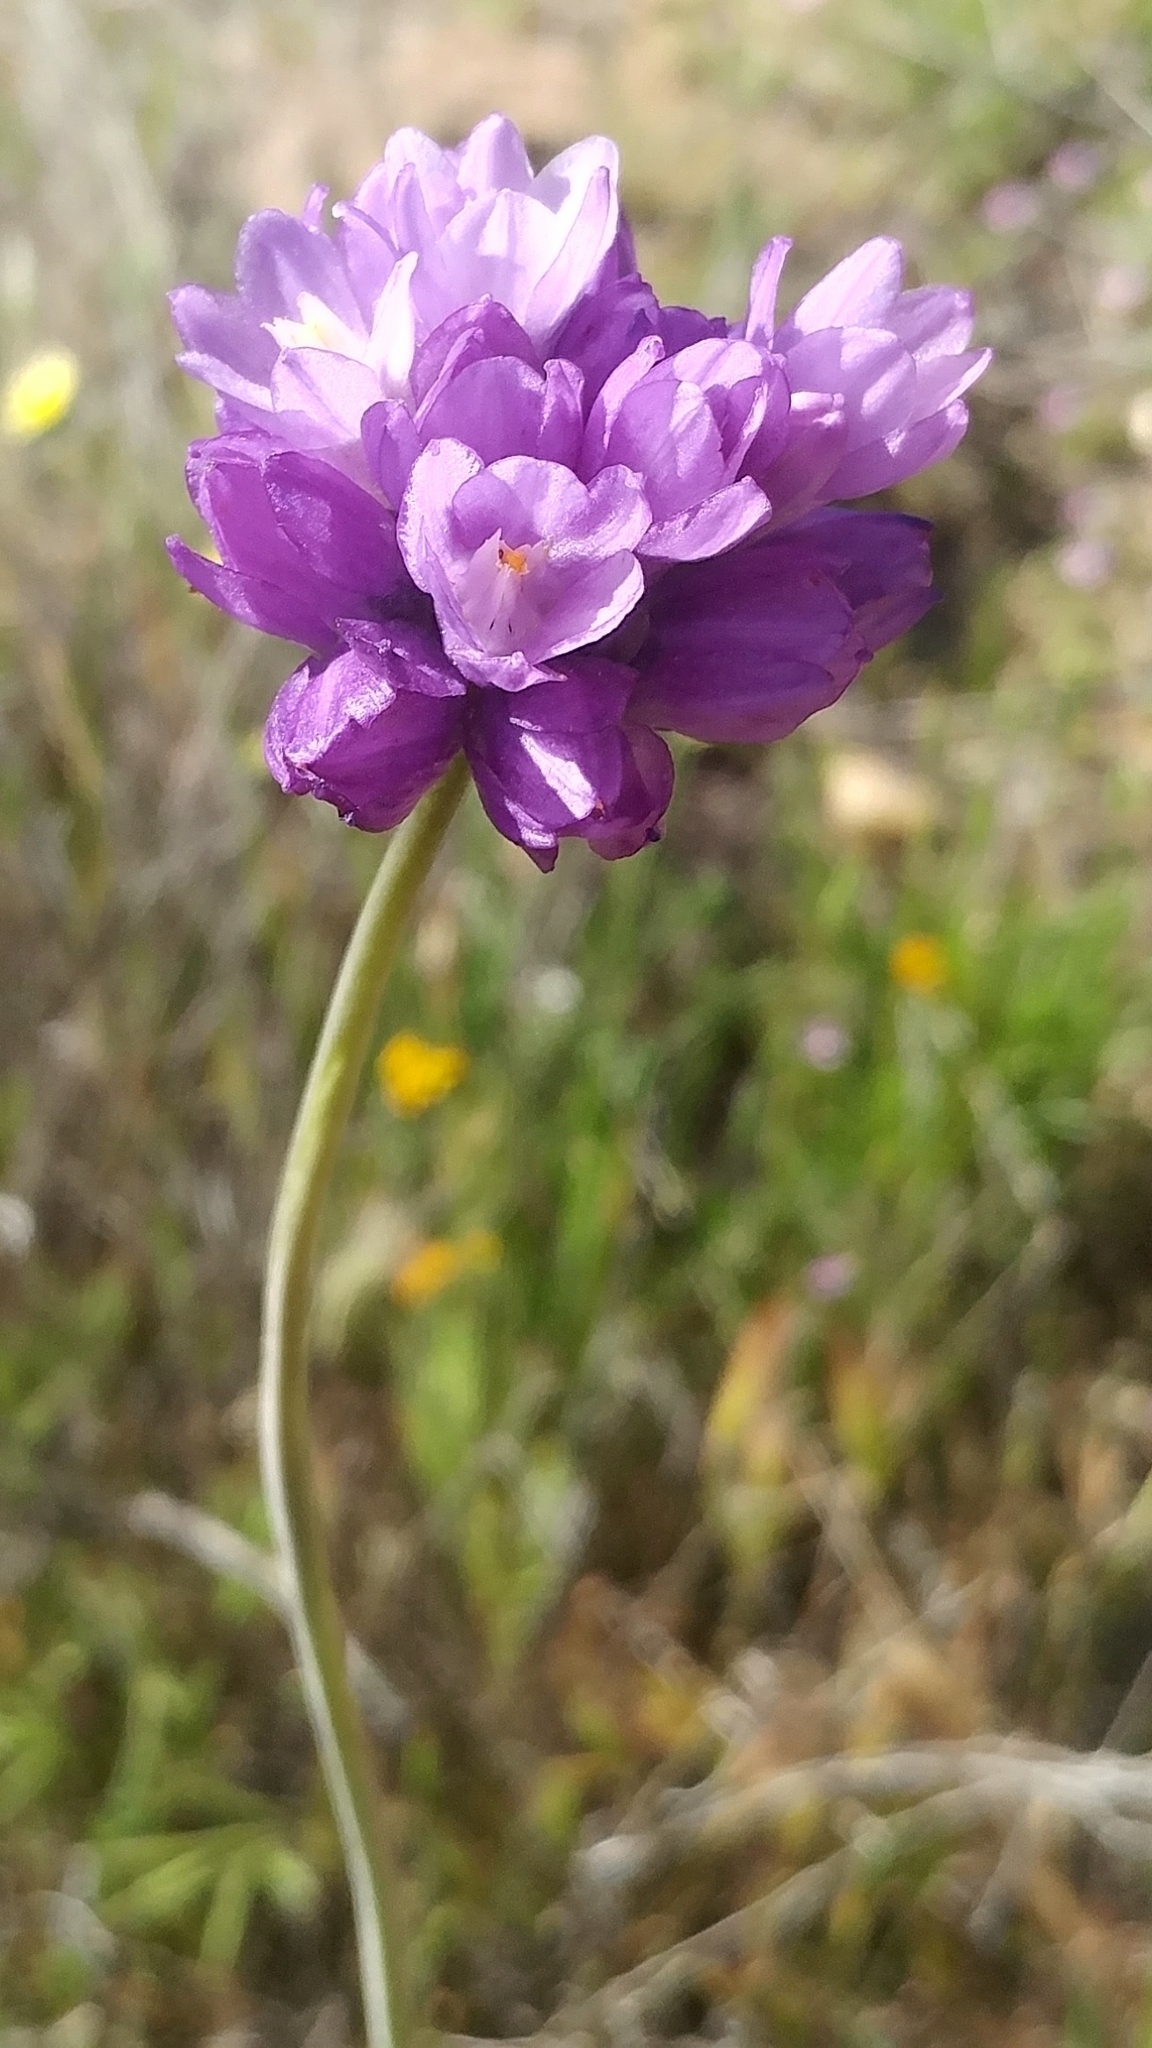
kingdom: Plantae
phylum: Tracheophyta
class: Liliopsida
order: Asparagales
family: Asparagaceae
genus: Dipterostemon
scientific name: Dipterostemon capitatus
